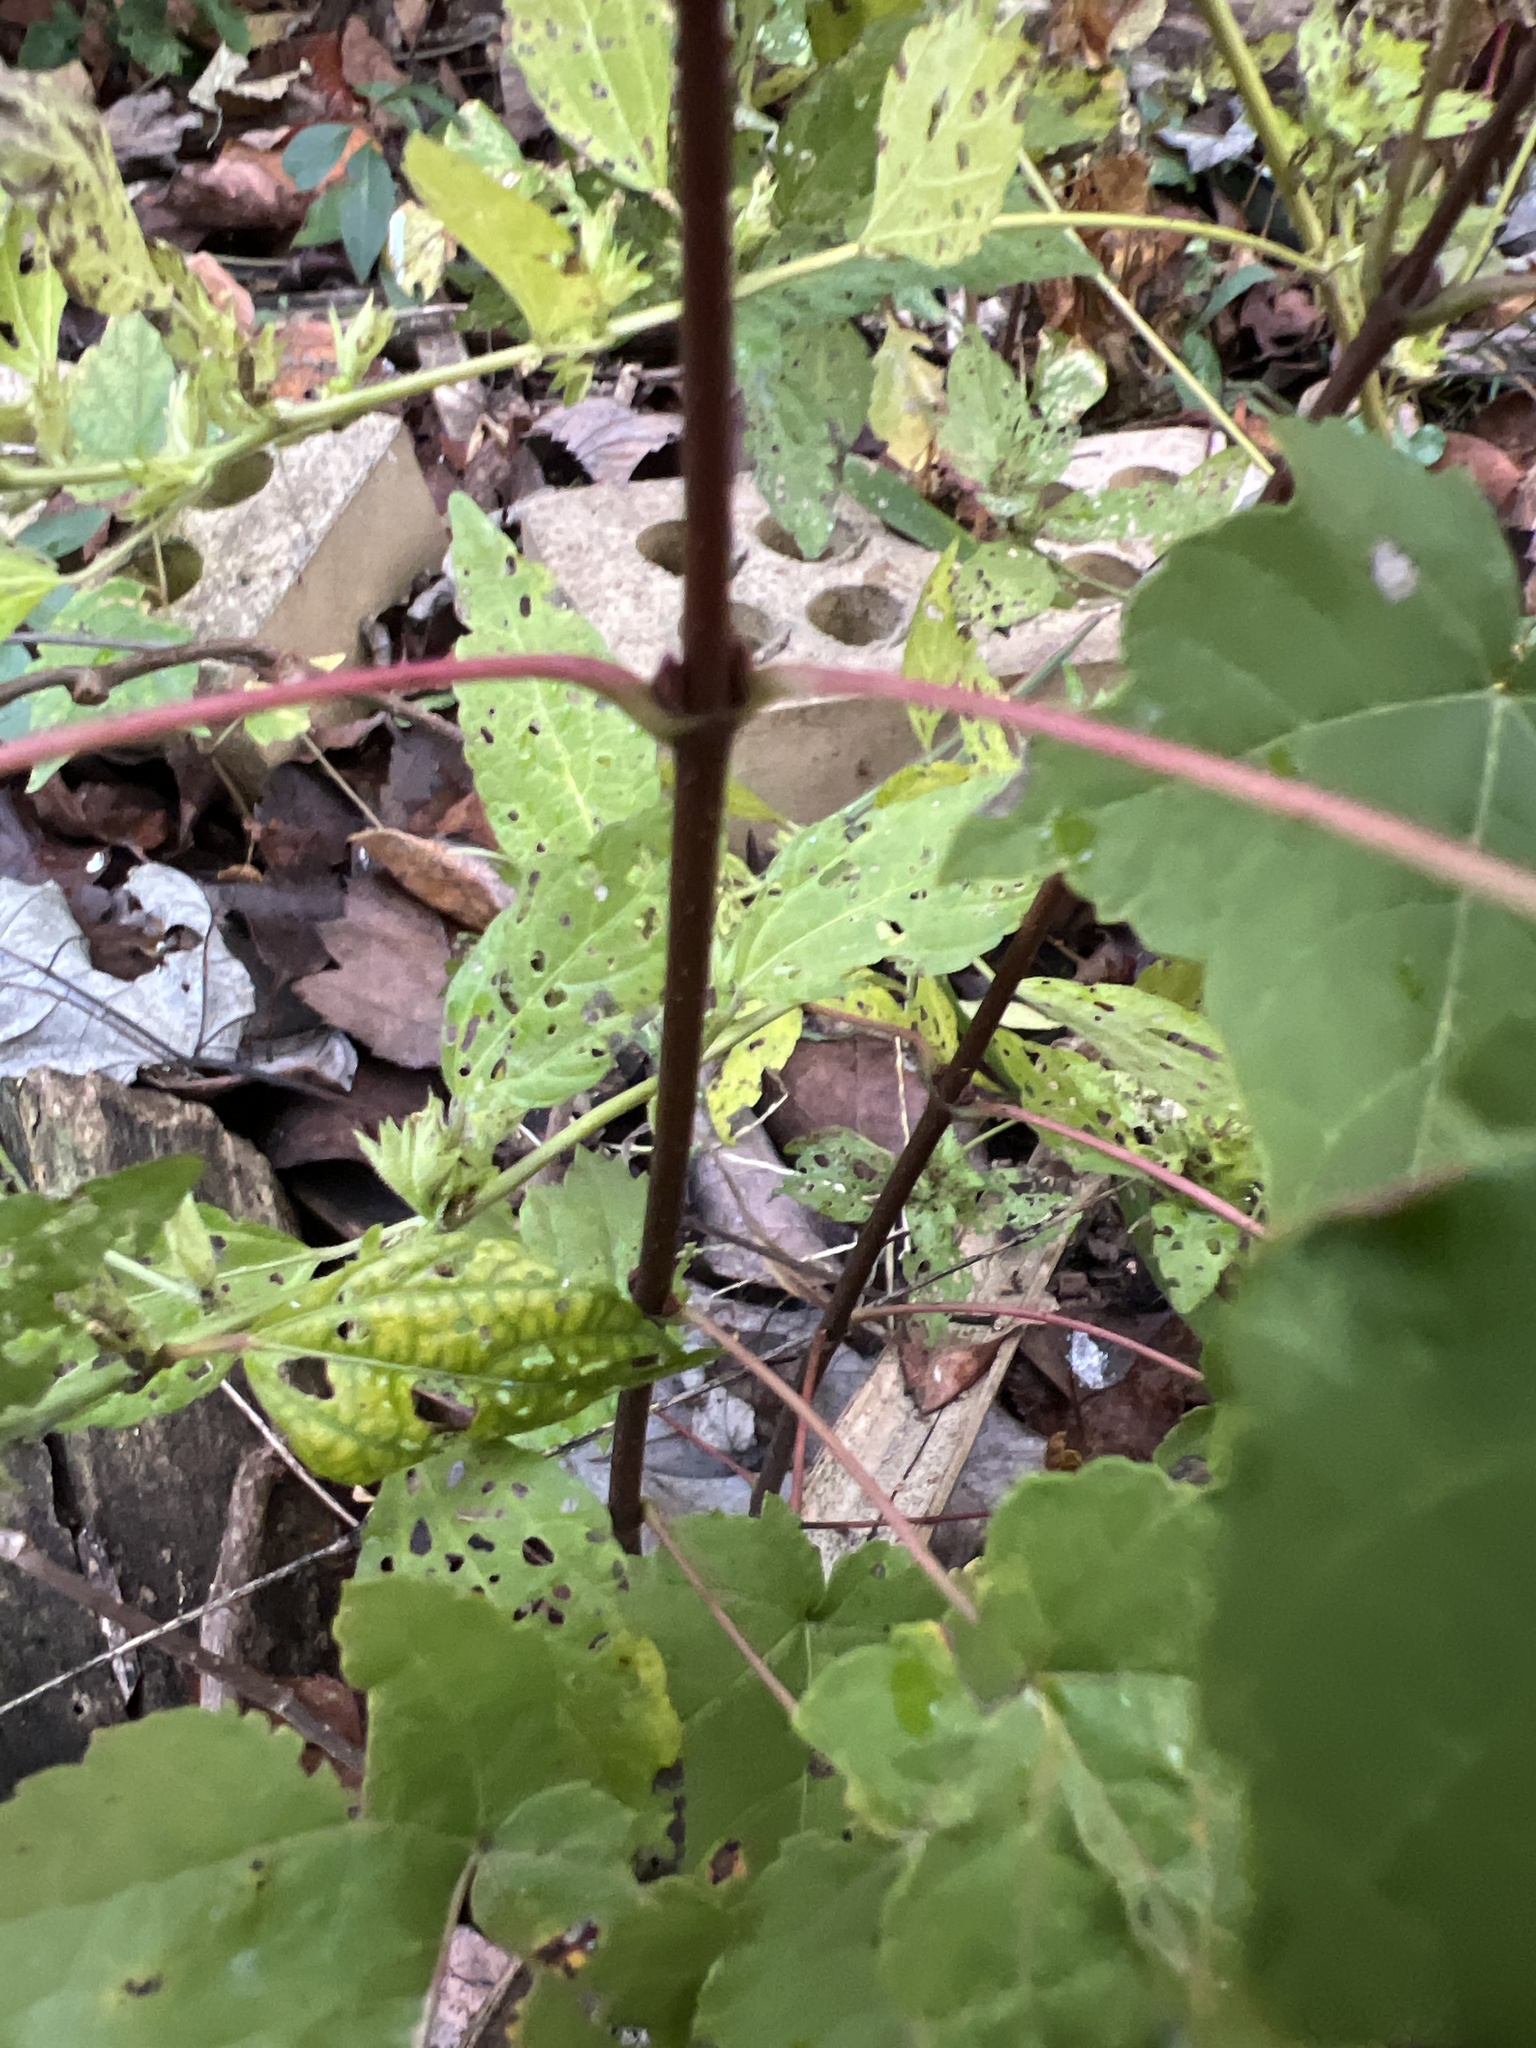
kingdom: Plantae
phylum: Tracheophyta
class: Magnoliopsida
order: Sapindales
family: Sapindaceae
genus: Acer
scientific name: Acer rubrum
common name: Red maple
